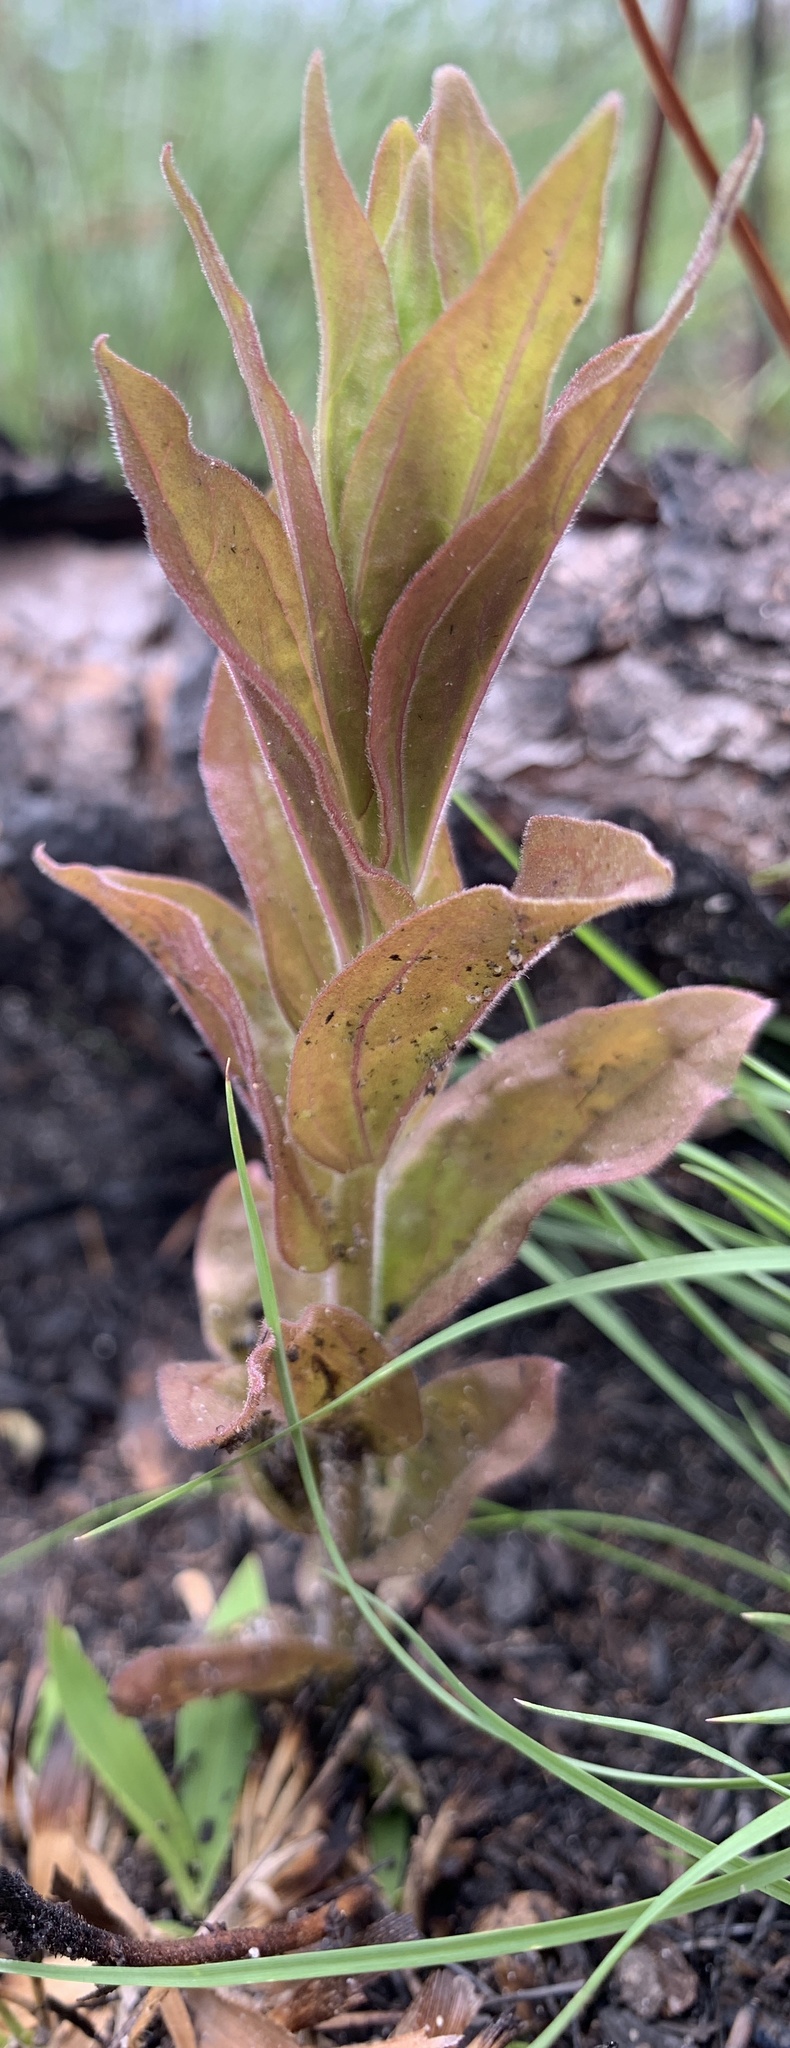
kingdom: Plantae
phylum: Tracheophyta
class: Magnoliopsida
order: Lamiales
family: Orobanchaceae
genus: Schwalbea
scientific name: Schwalbea americana
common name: American chaffseed
